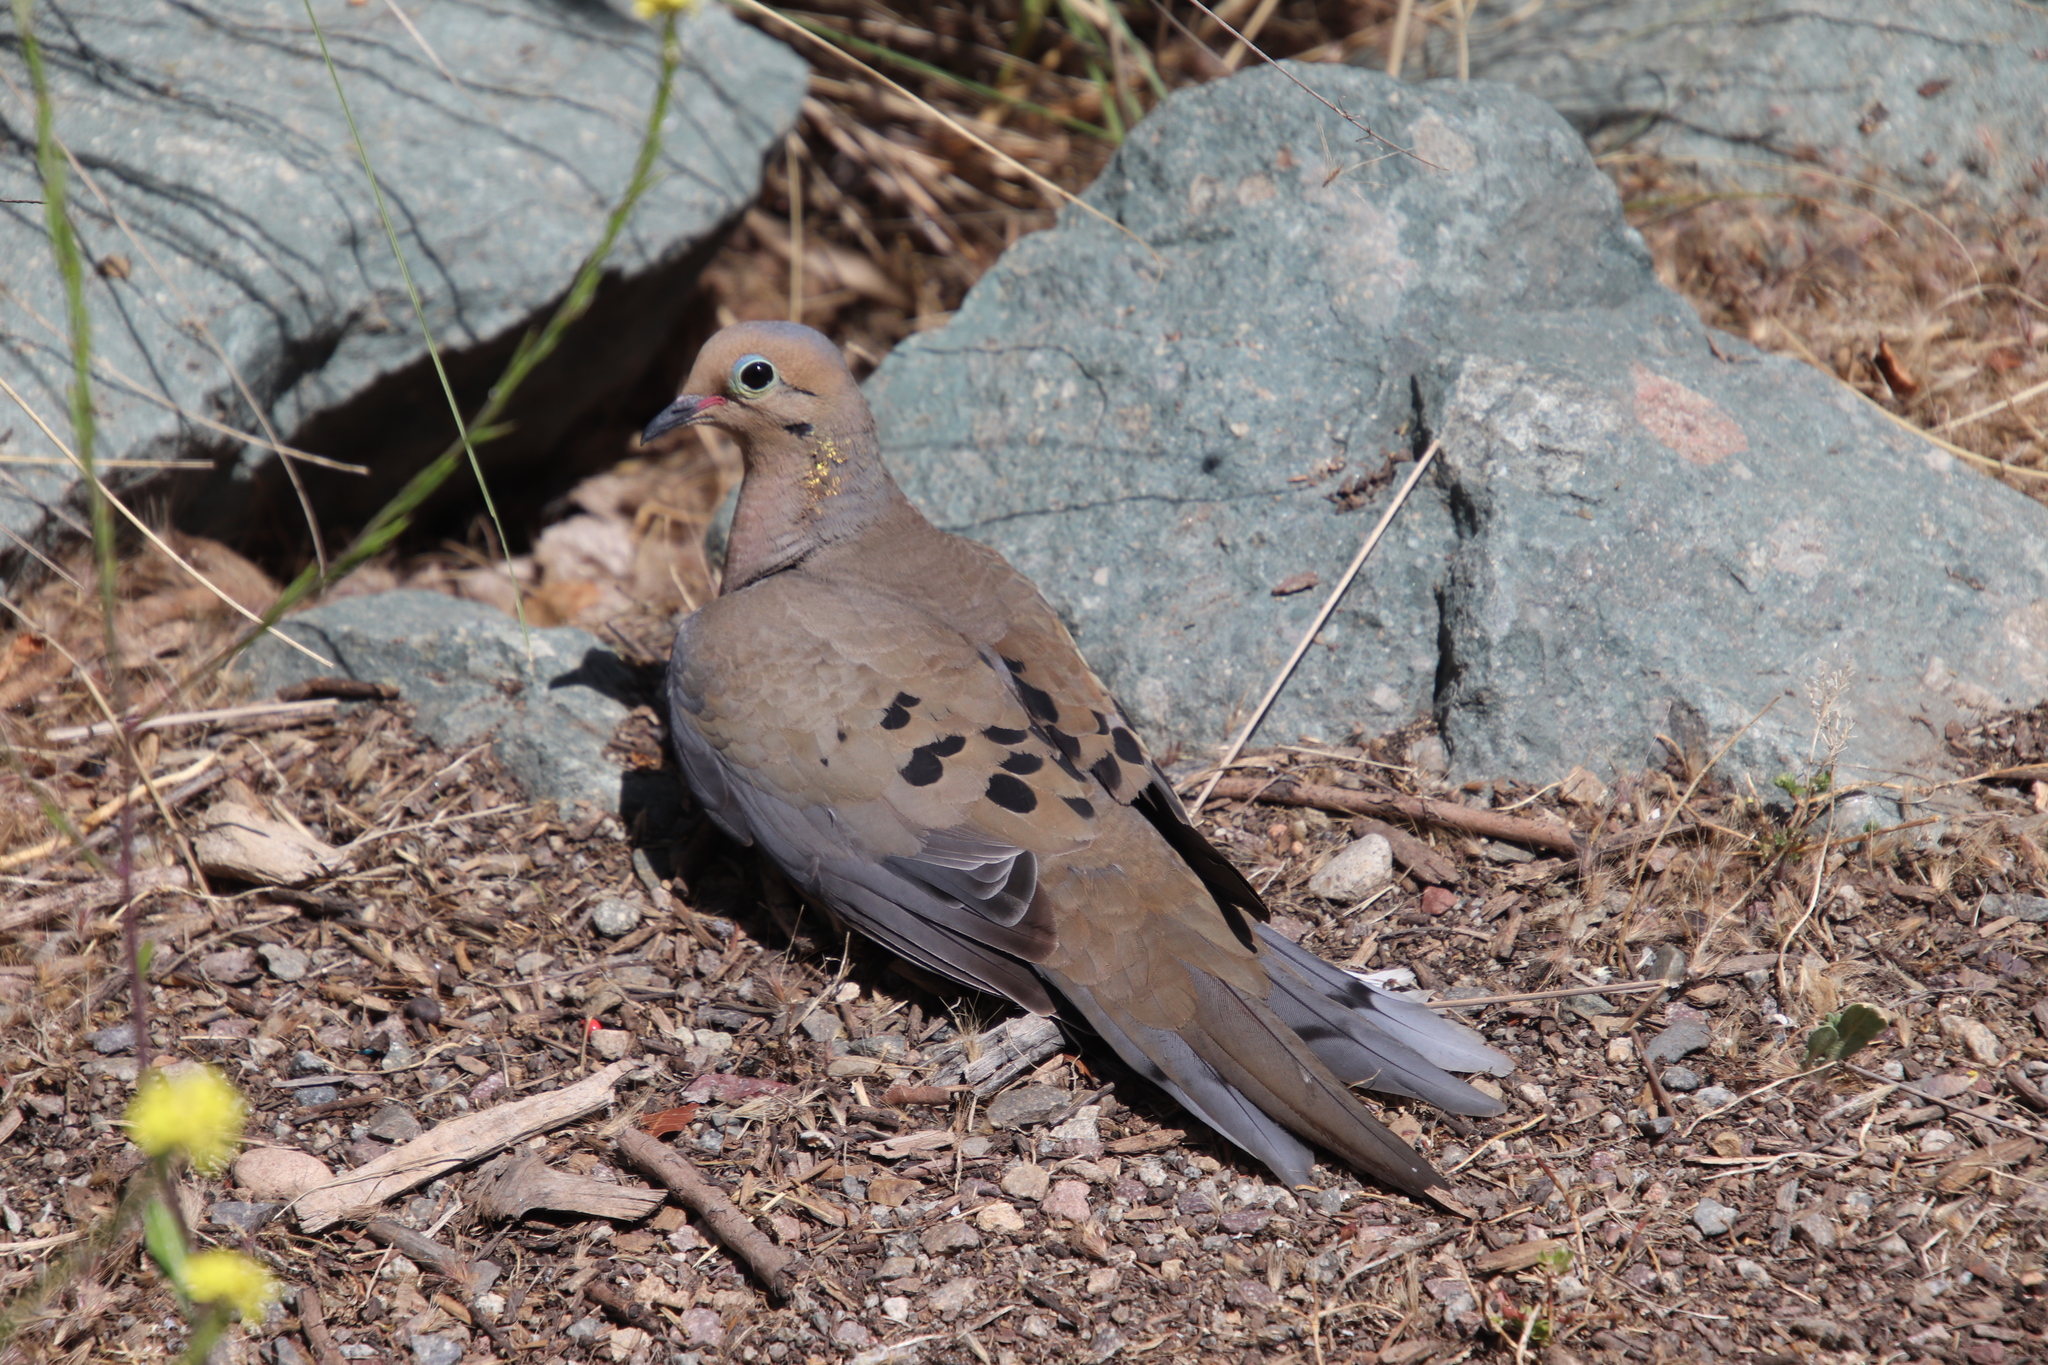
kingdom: Animalia
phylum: Chordata
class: Aves
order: Columbiformes
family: Columbidae
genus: Zenaida
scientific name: Zenaida macroura
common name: Mourning dove
